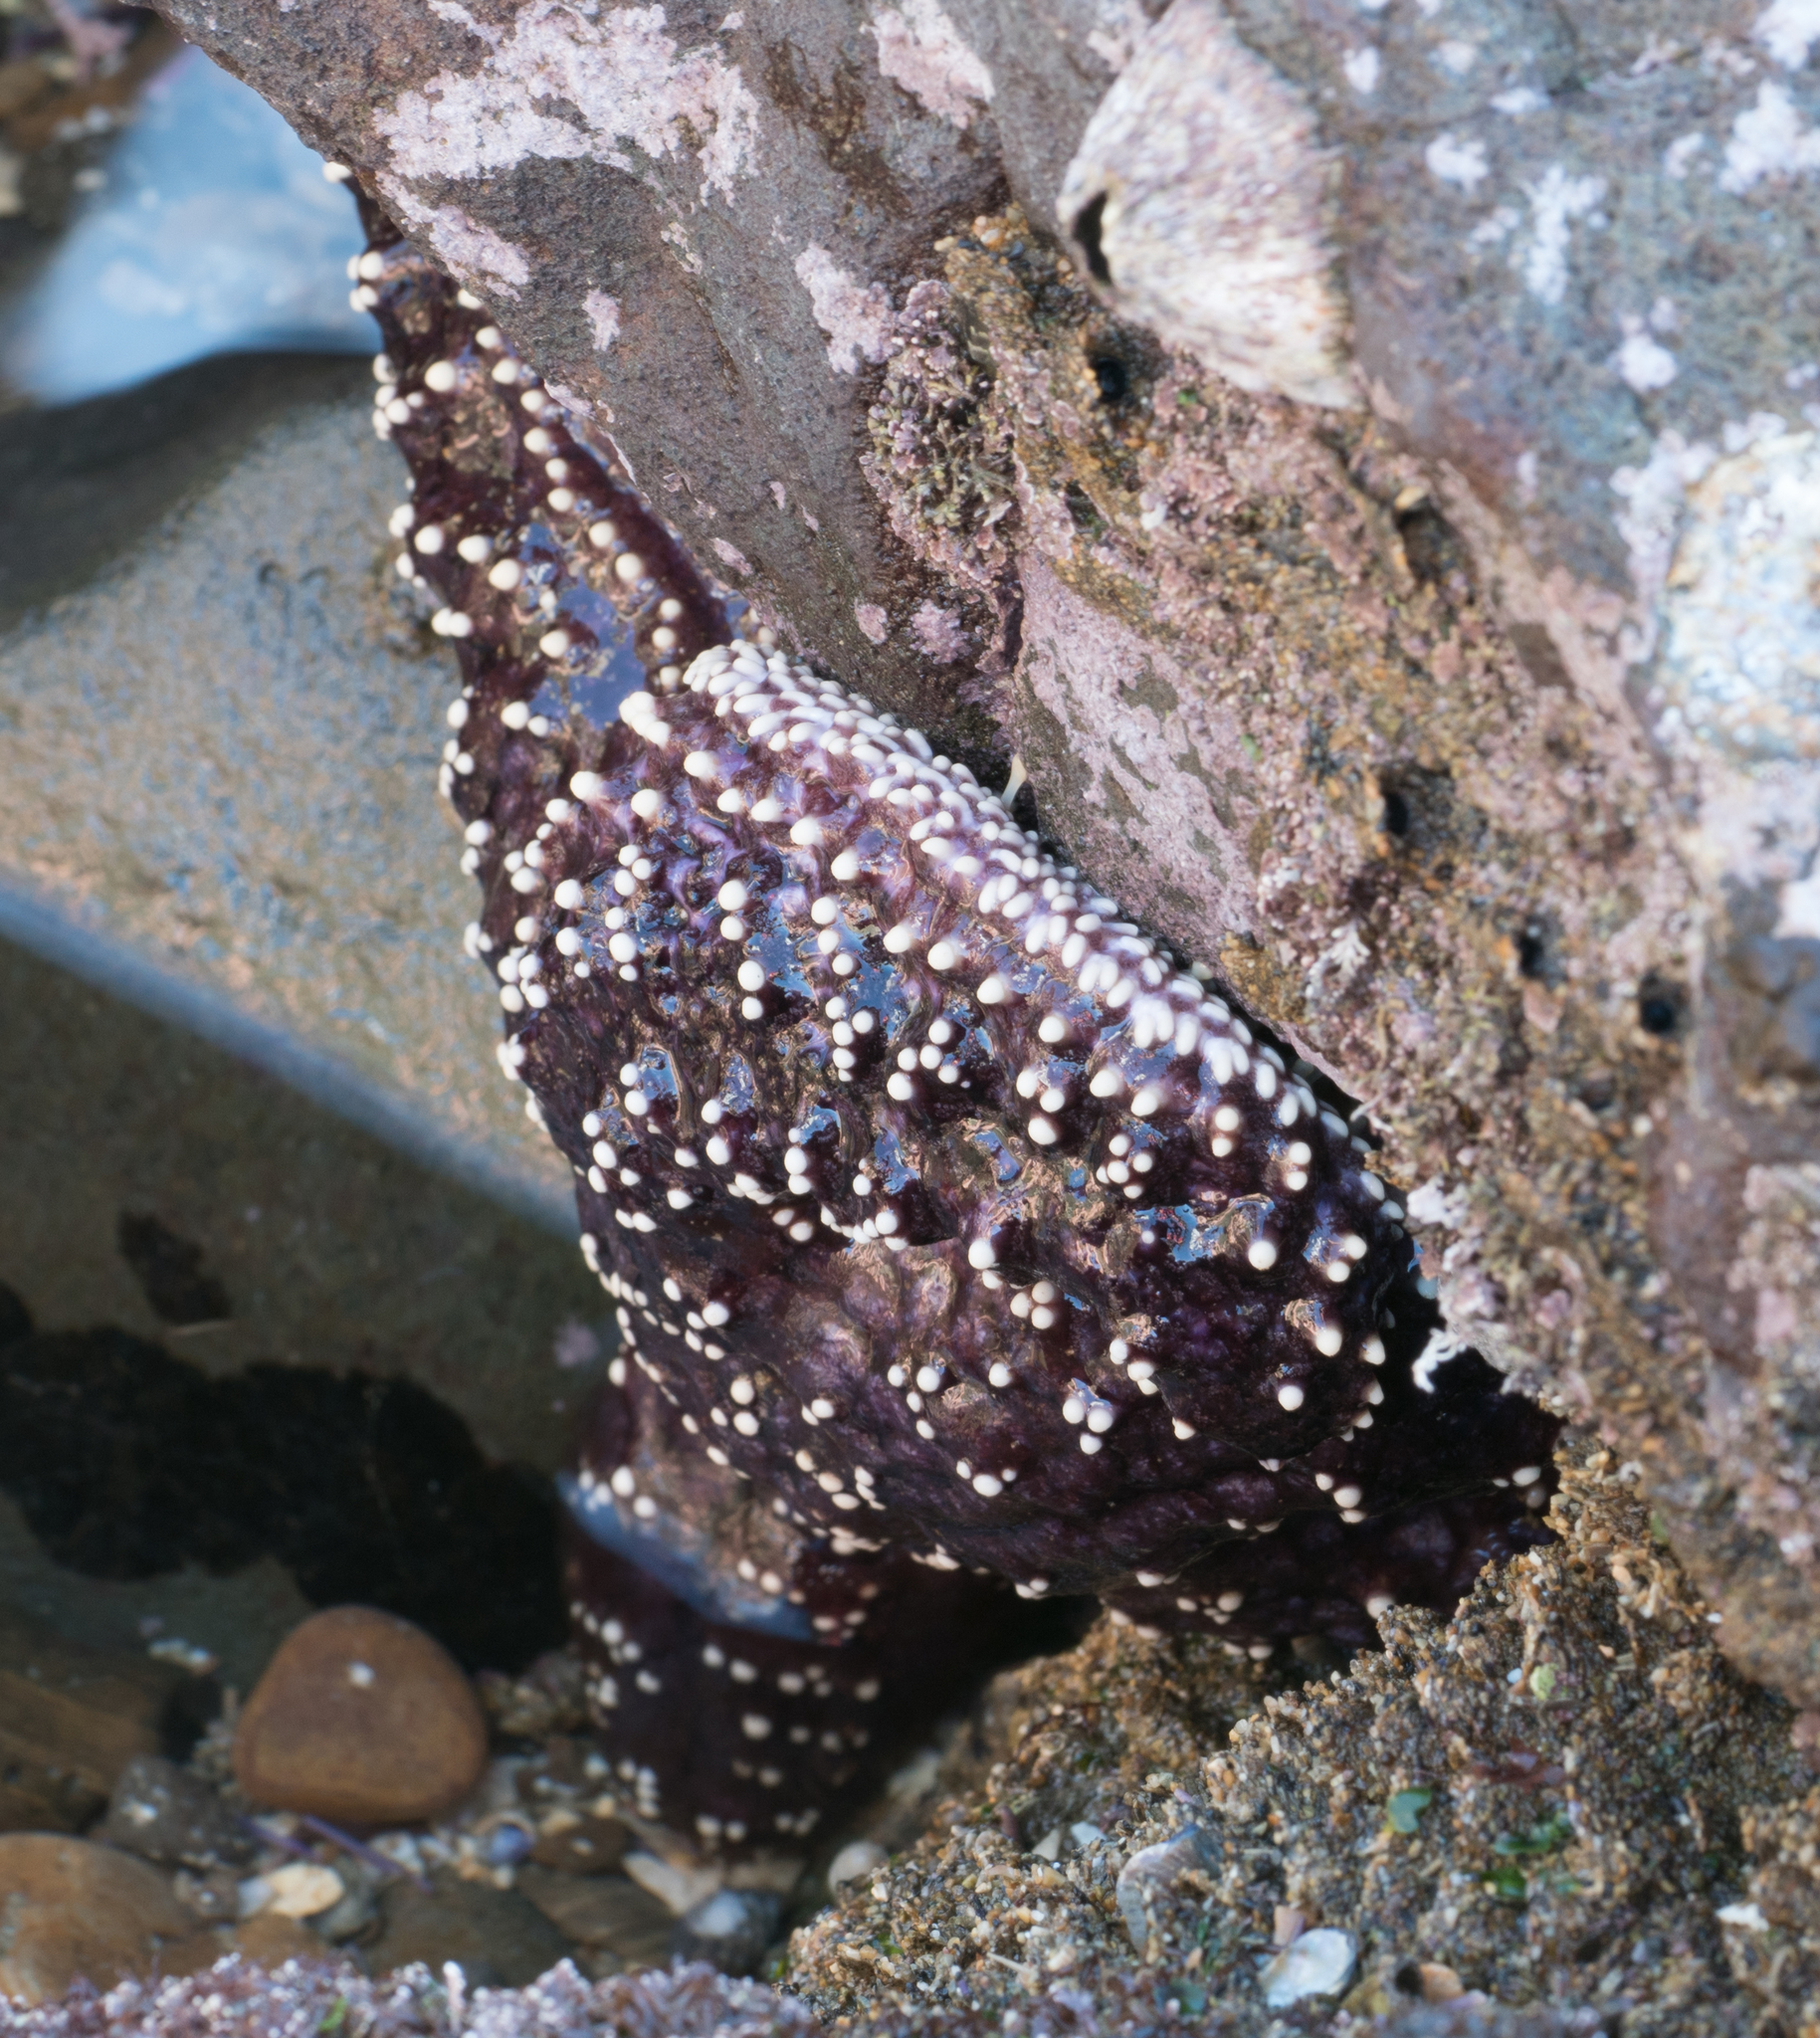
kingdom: Animalia
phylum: Echinodermata
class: Asteroidea
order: Forcipulatida
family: Asteriidae
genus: Pisaster
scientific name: Pisaster ochraceus
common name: Ochre stars
